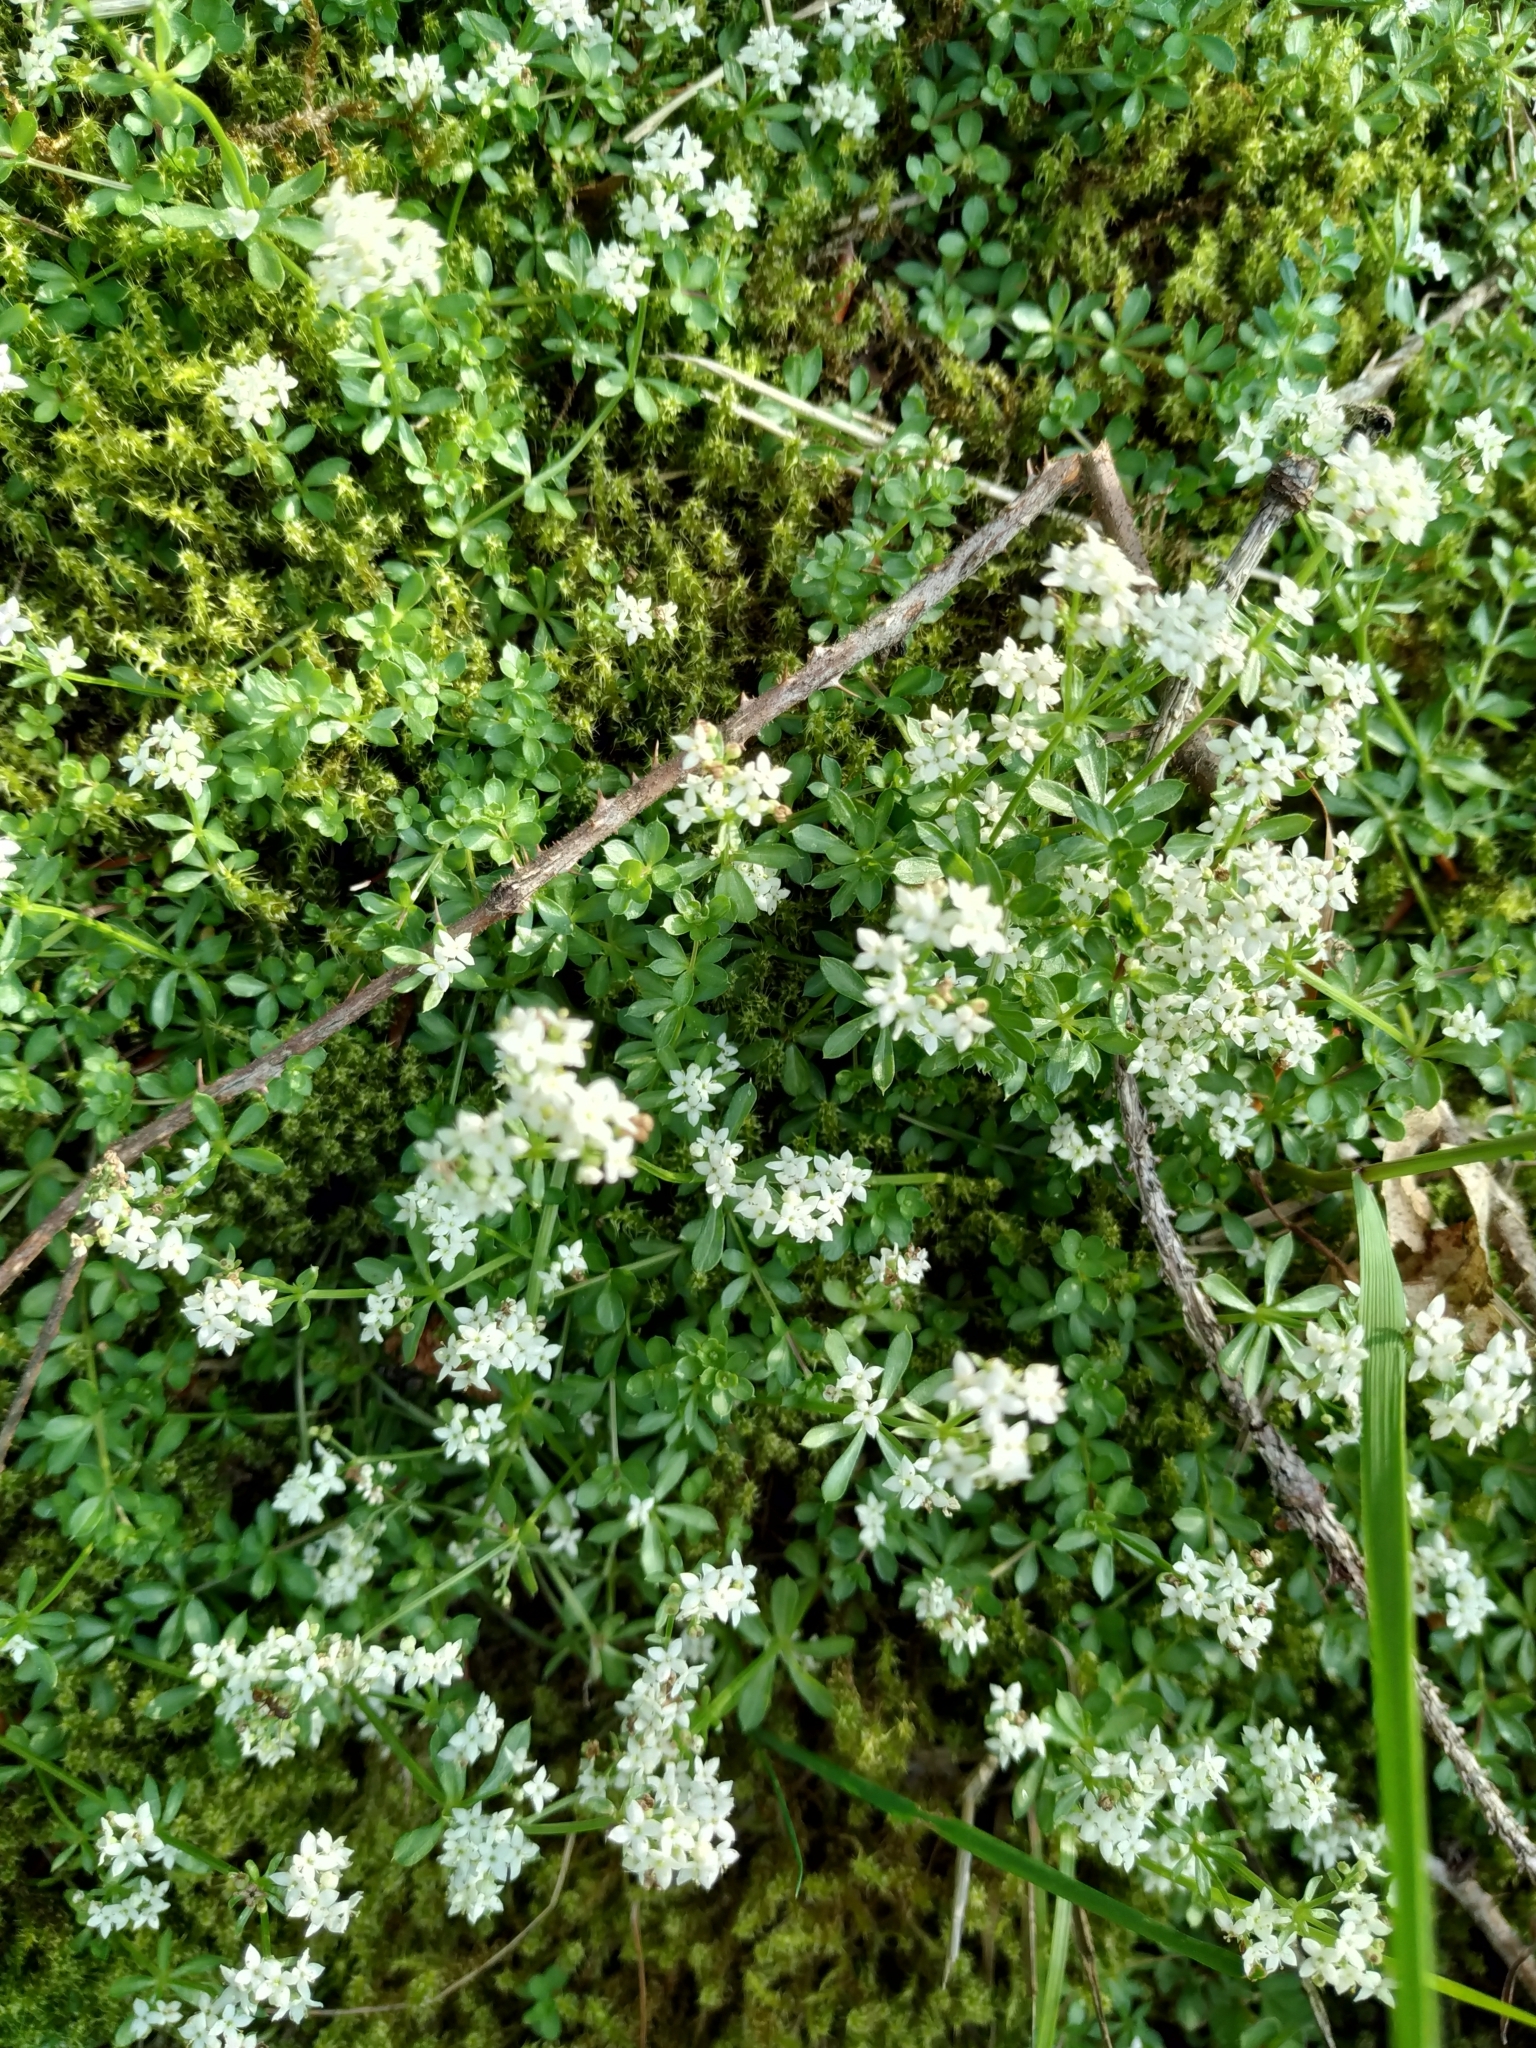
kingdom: Plantae
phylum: Tracheophyta
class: Magnoliopsida
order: Gentianales
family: Rubiaceae
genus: Galium
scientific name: Galium saxatile
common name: Heath bedstraw
